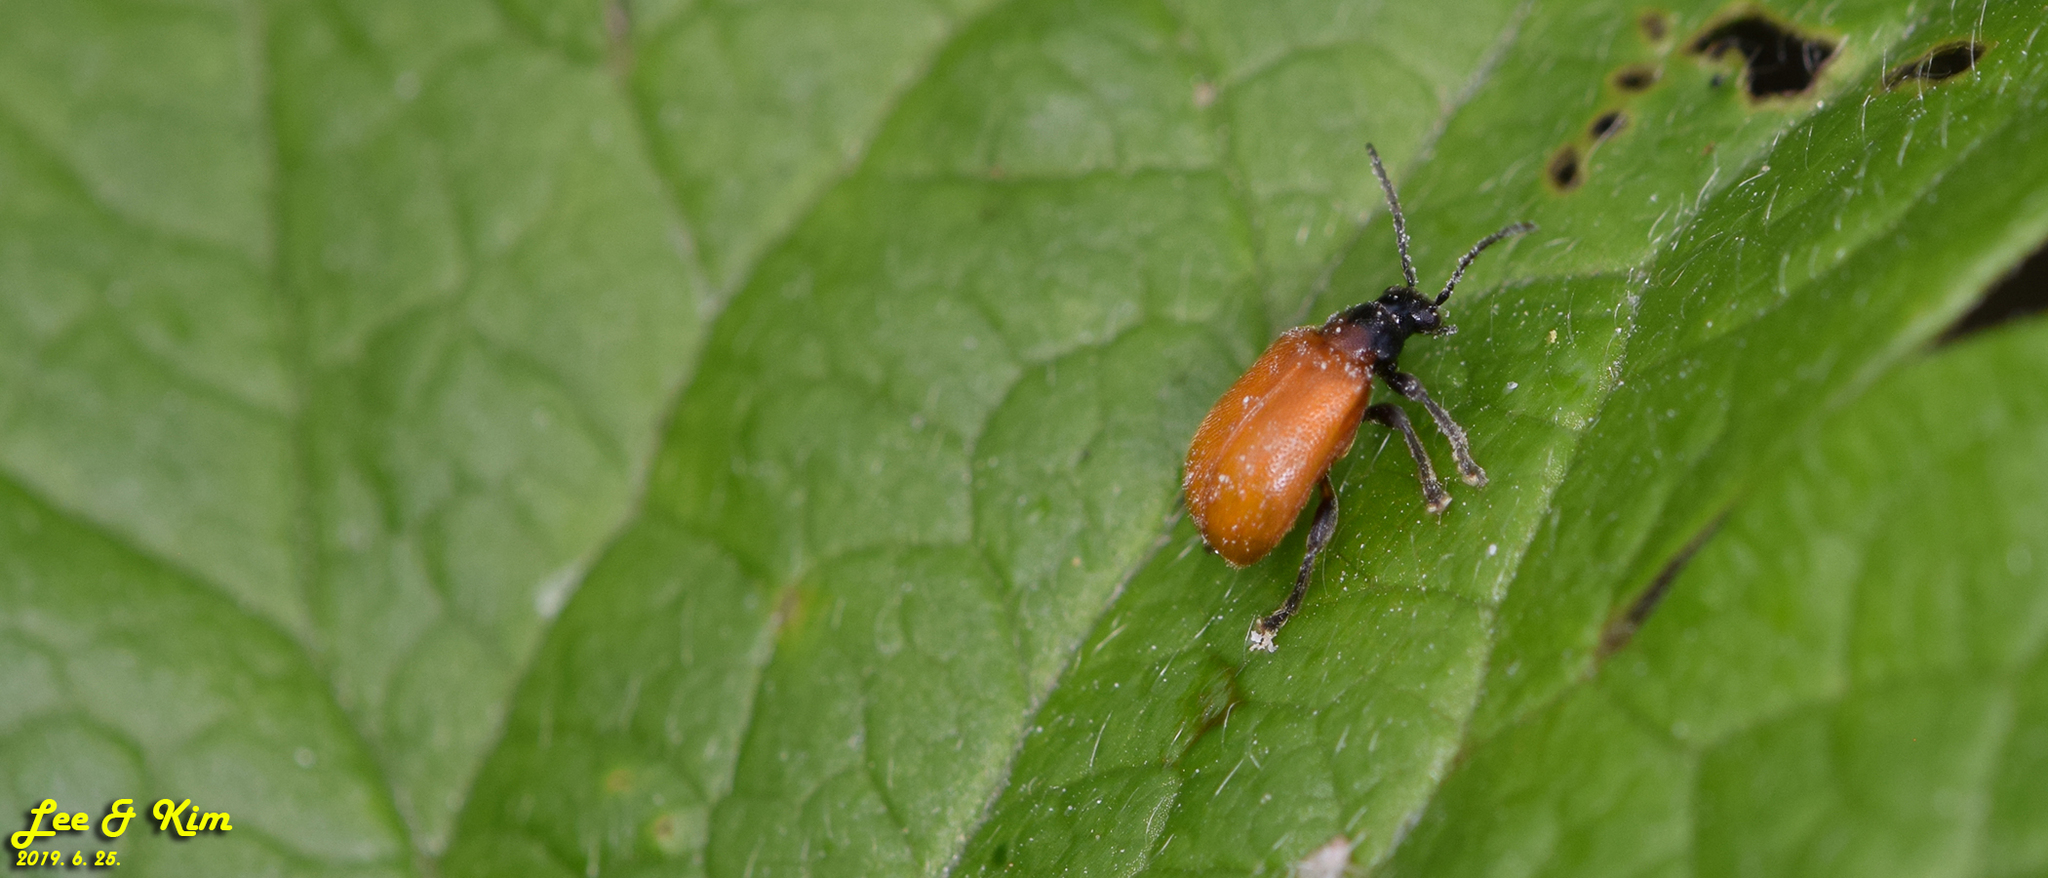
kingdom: Animalia
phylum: Arthropoda
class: Insecta
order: Coleoptera
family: Megalopodidae
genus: Zeugophora
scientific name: Zeugophora bicolor
